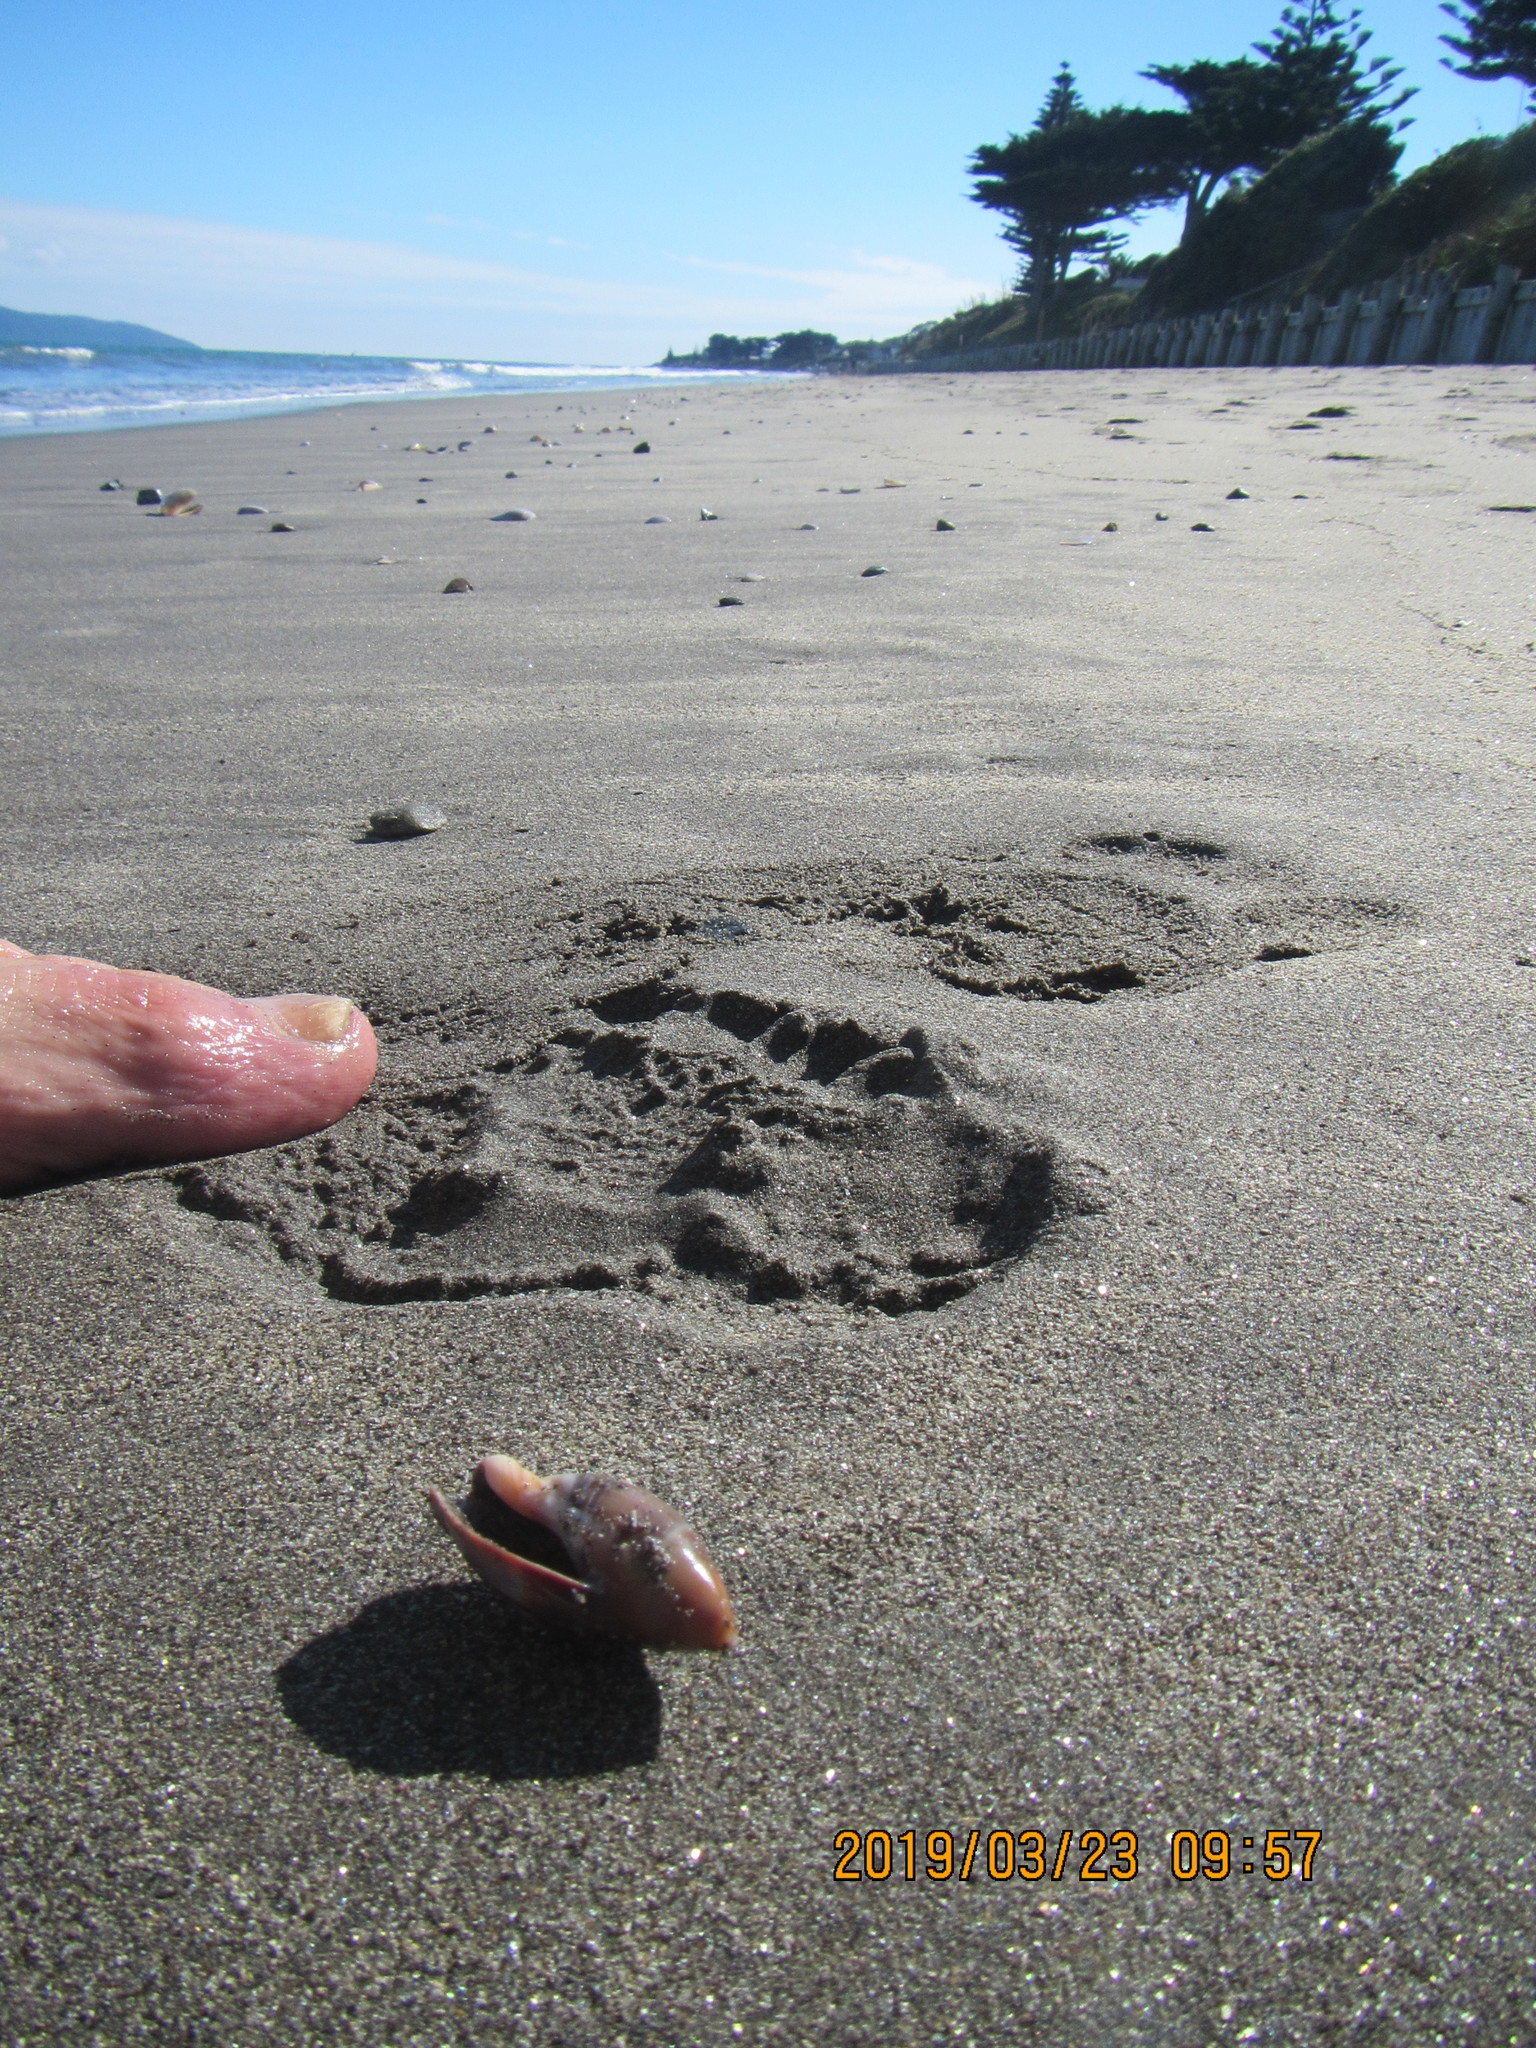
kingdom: Animalia
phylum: Mollusca
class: Gastropoda
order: Neogastropoda
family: Ancillariidae
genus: Amalda
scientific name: Amalda australis
